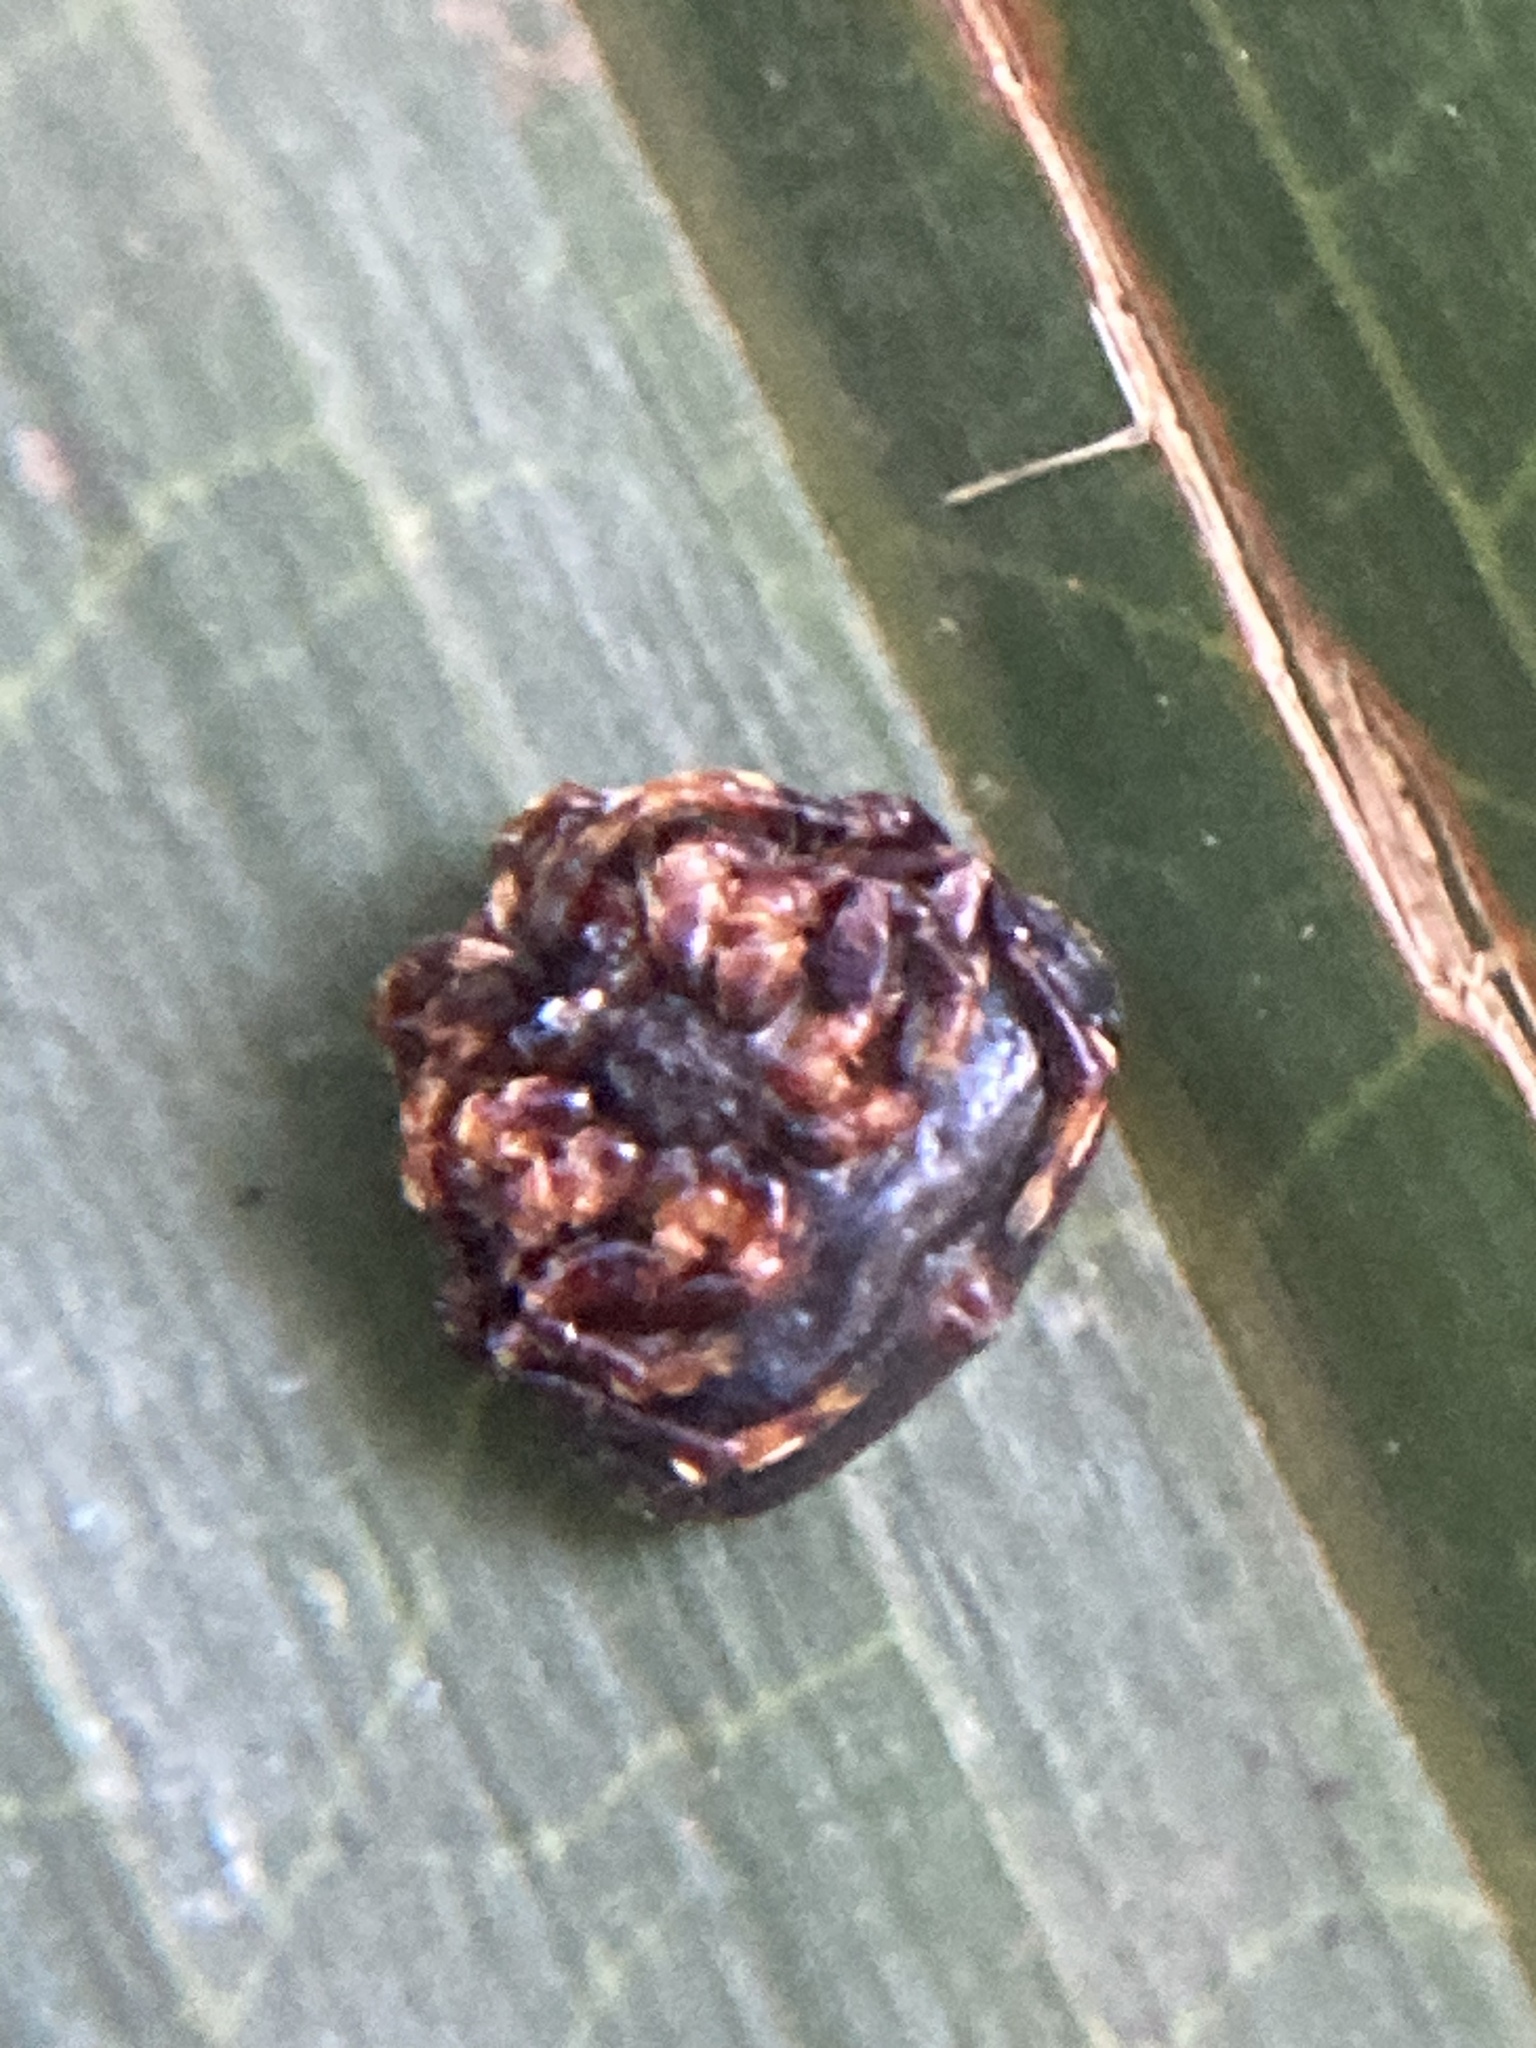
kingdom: Animalia
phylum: Arthropoda
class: Arachnida
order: Araneae
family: Arkyidae
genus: Arkys
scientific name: Arkys curtulus
